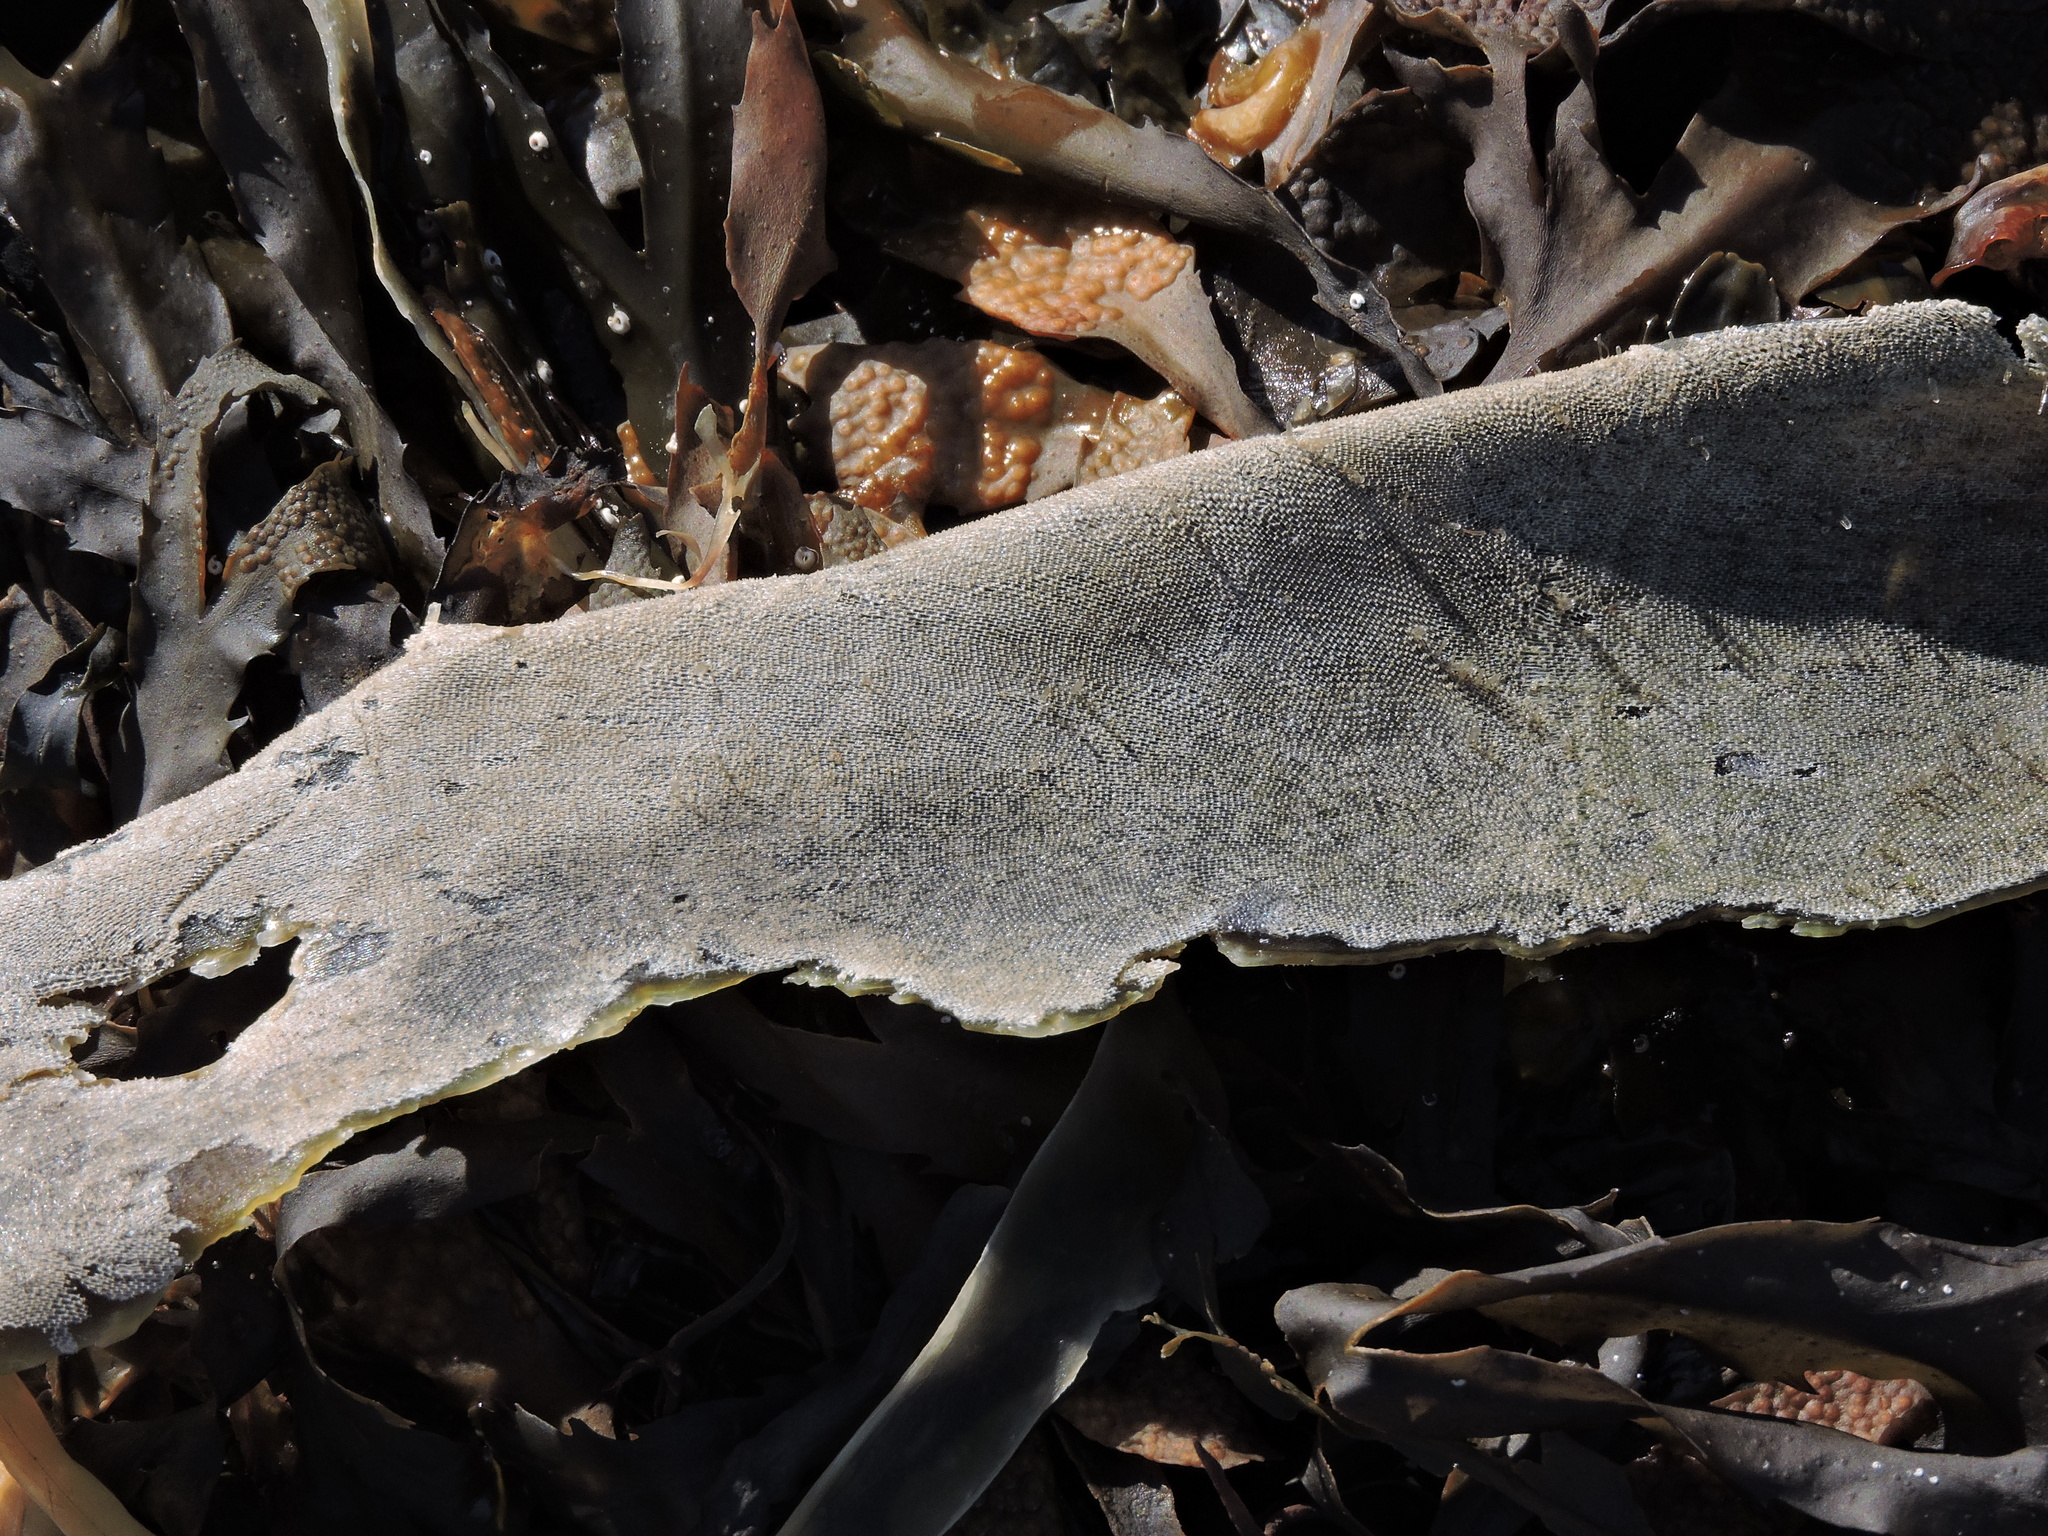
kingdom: Animalia
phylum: Bryozoa
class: Gymnolaemata
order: Cheilostomatida
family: Membraniporidae
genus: Membranipora
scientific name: Membranipora membranacea
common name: Sea mat
